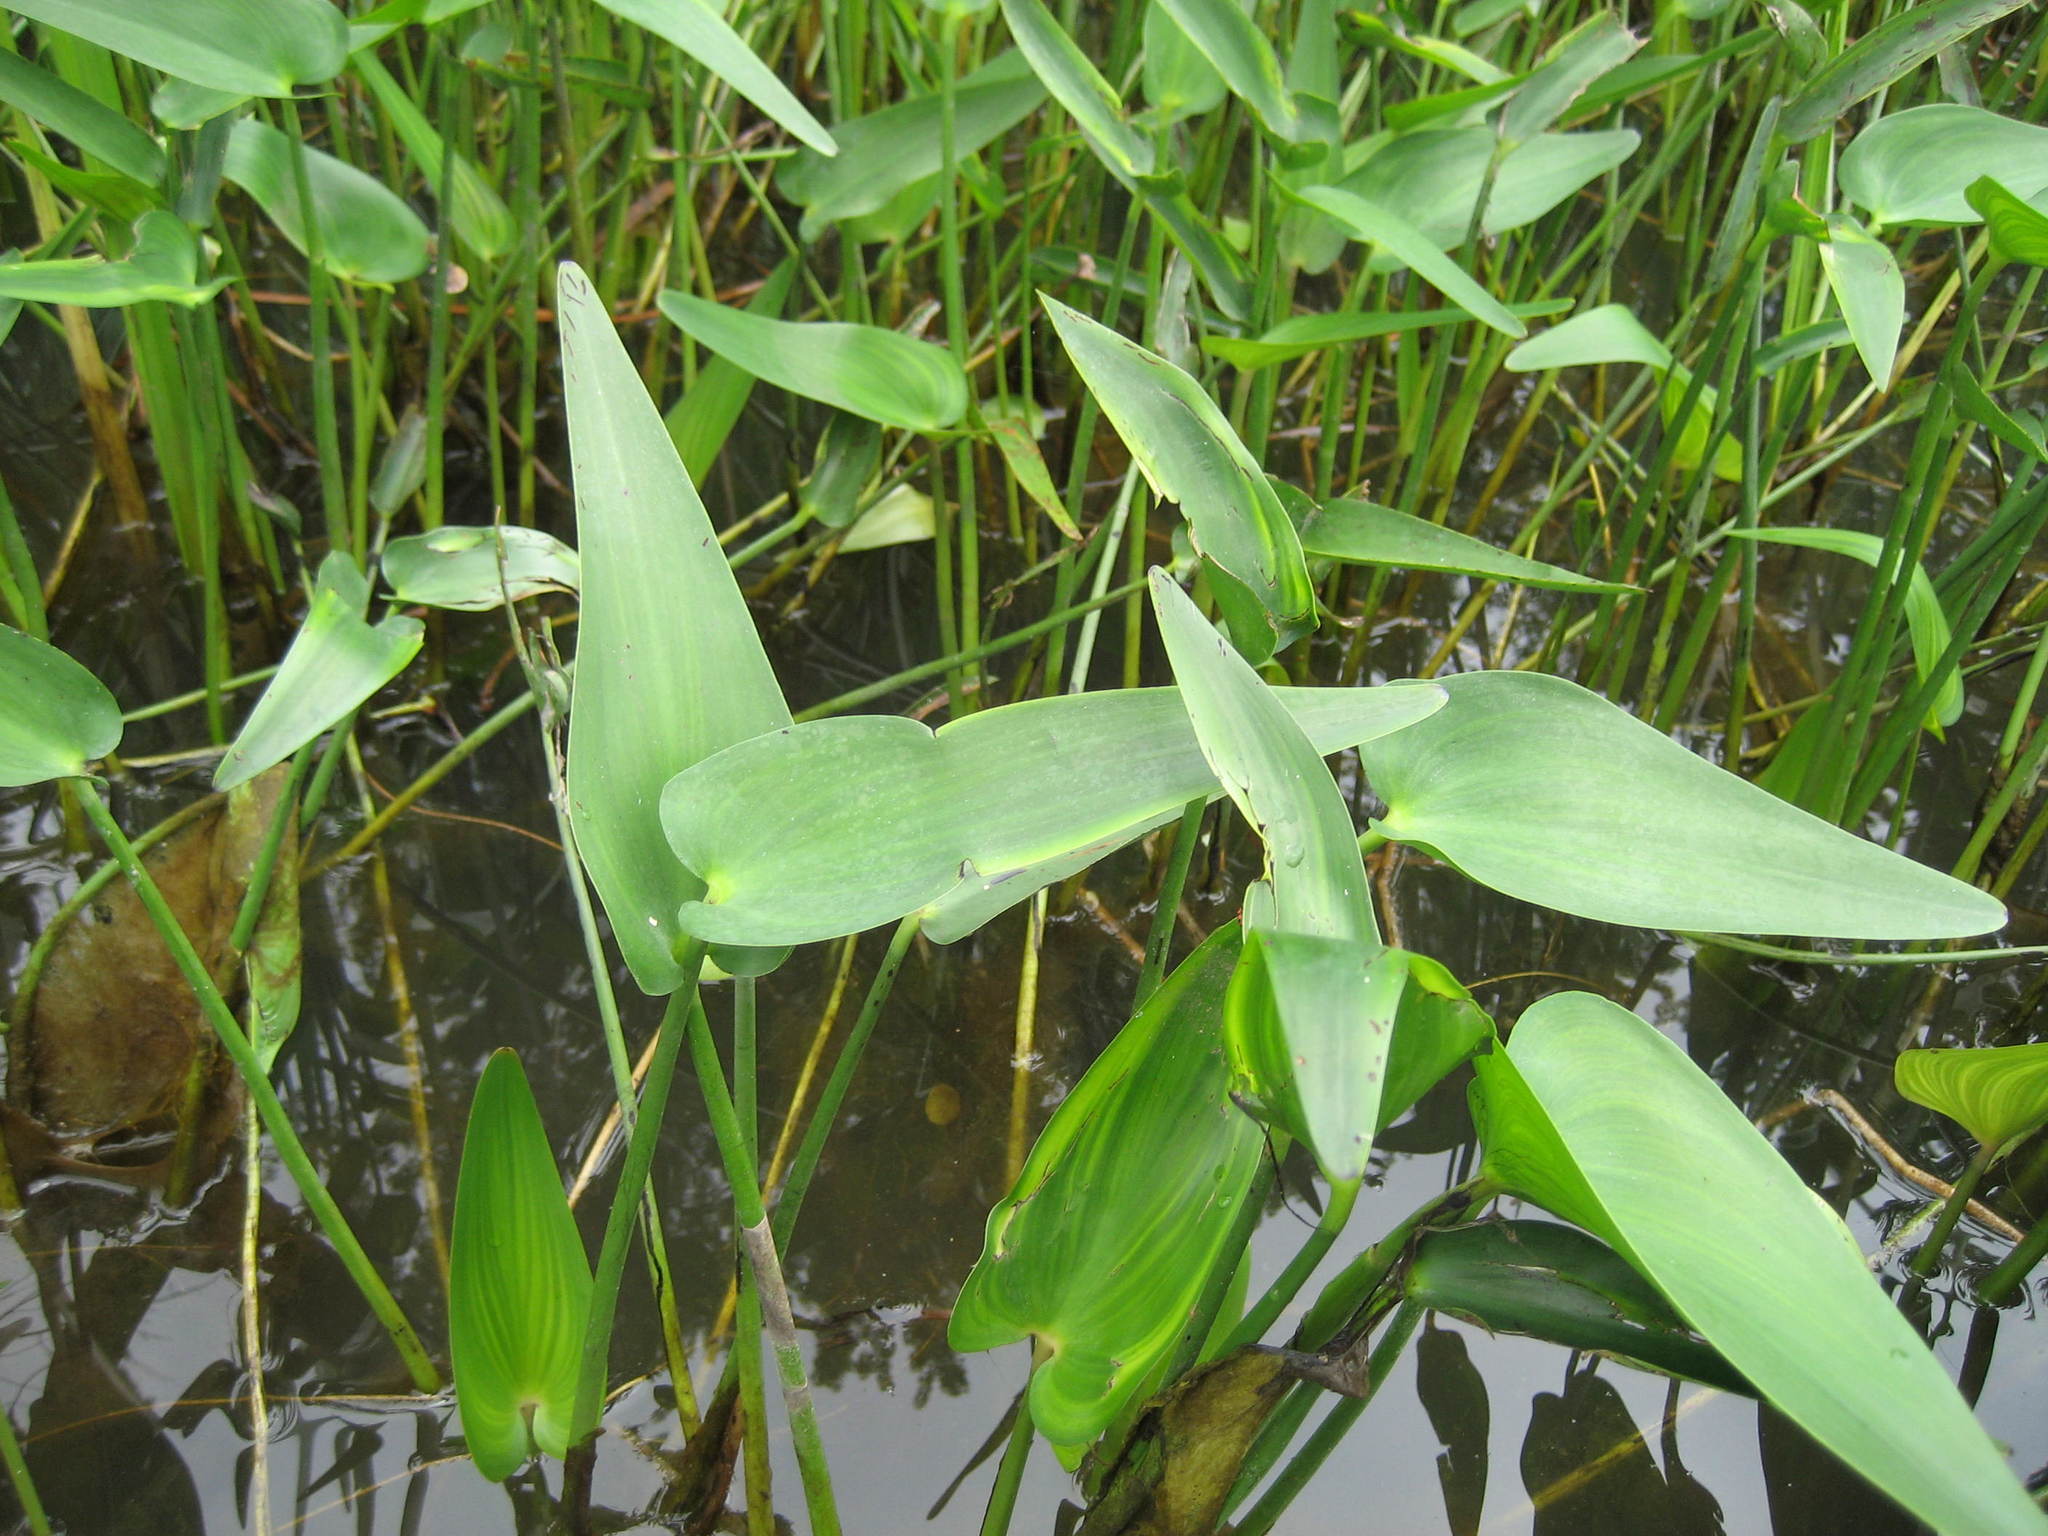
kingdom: Plantae
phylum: Tracheophyta
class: Liliopsida
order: Commelinales
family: Pontederiaceae
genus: Pontederia
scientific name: Pontederia cordata
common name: Pickerelweed
